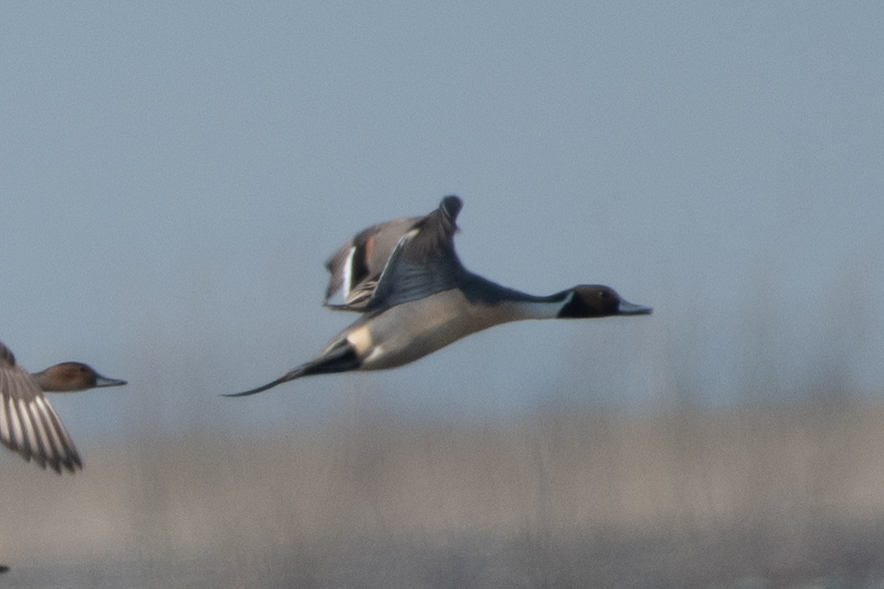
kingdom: Animalia
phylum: Chordata
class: Aves
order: Anseriformes
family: Anatidae
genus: Anas
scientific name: Anas acuta
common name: Northern pintail
